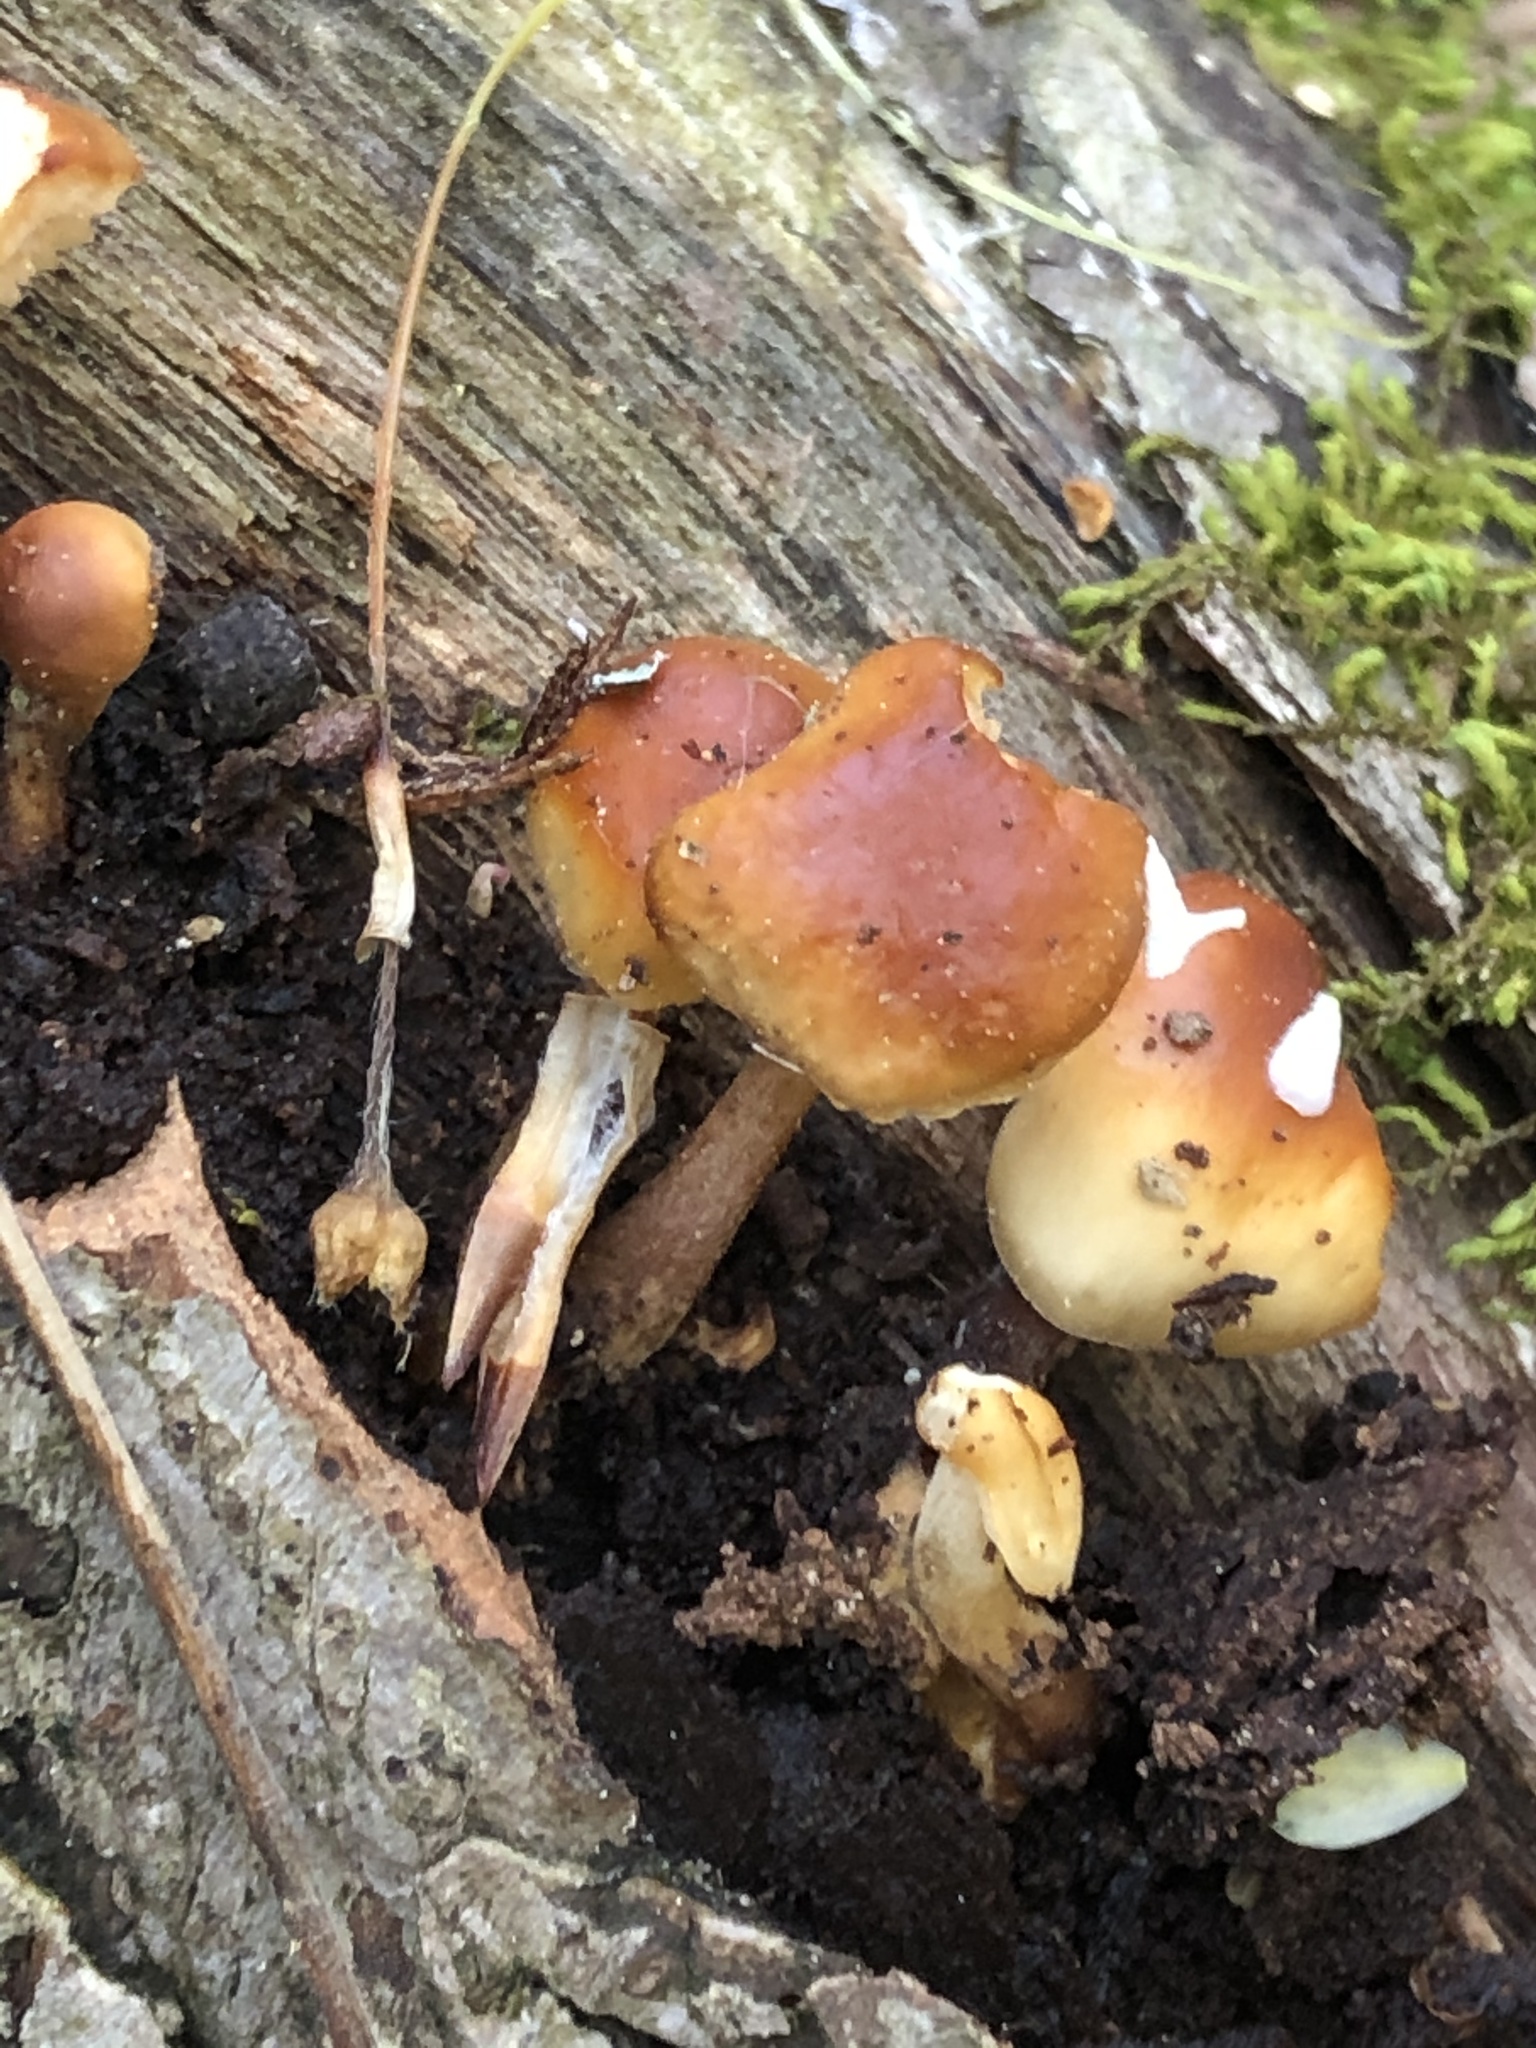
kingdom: Fungi
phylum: Basidiomycota
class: Agaricomycetes
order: Agaricales
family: Physalacriaceae
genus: Flammulina
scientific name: Flammulina velutipes
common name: Velvet shank
